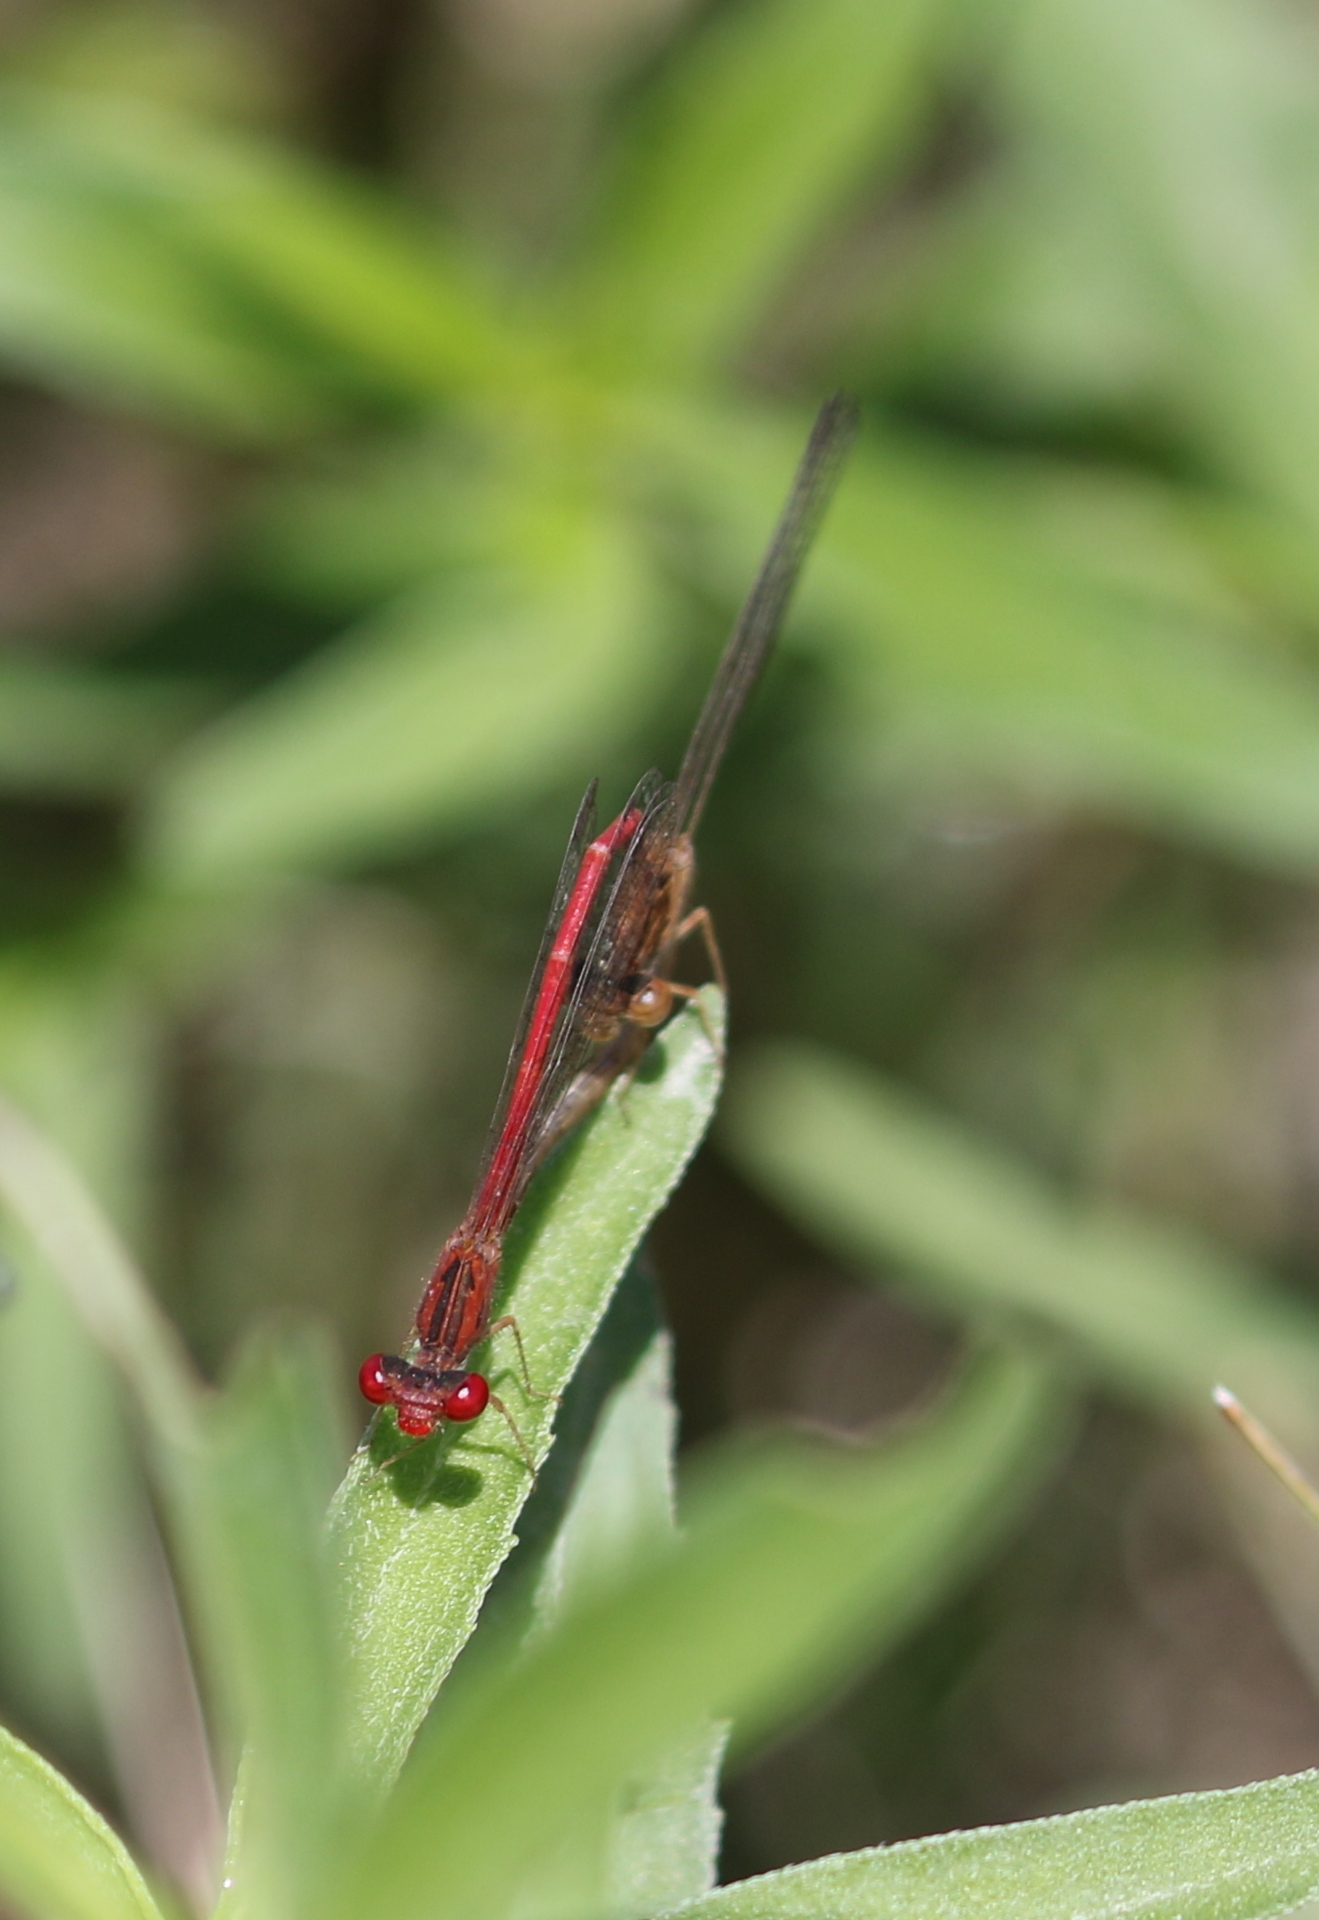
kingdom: Animalia
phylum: Arthropoda
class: Insecta
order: Odonata
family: Coenagrionidae
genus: Telebasis
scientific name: Telebasis salva
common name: Desert firetail
